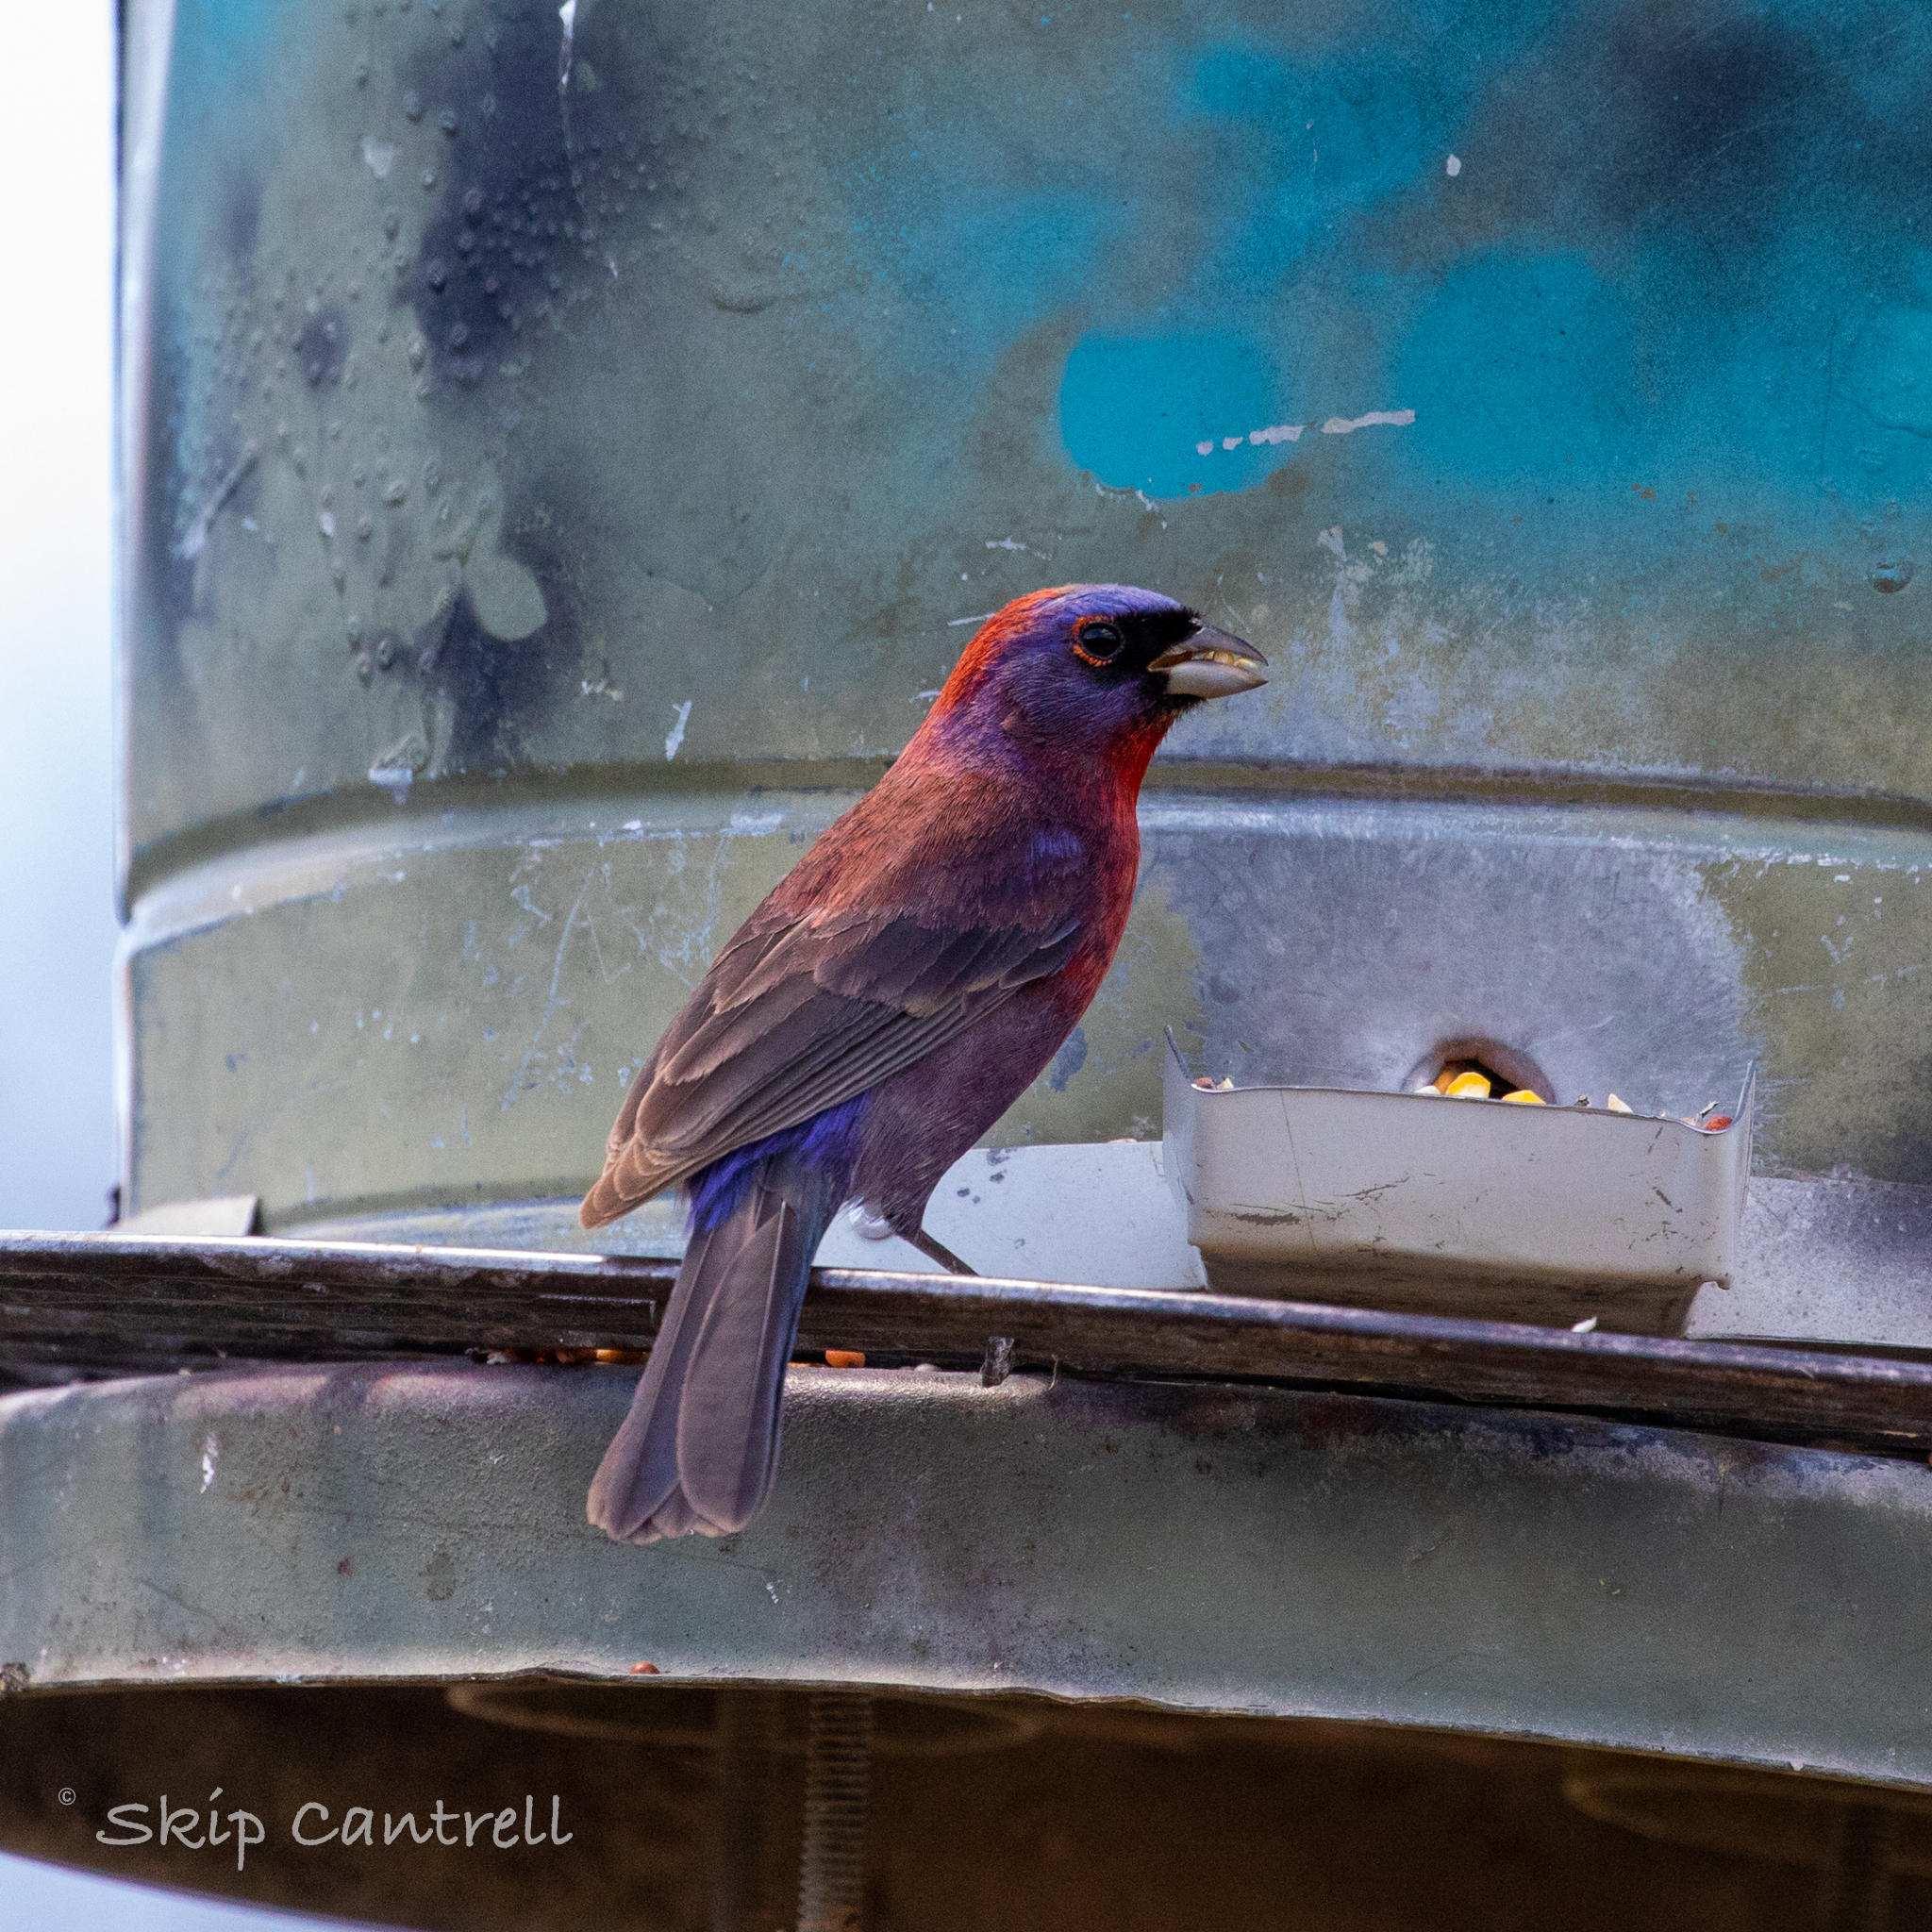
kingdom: Animalia
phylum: Chordata
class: Aves
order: Passeriformes
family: Cardinalidae
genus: Passerina
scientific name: Passerina versicolor
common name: Varied bunting
